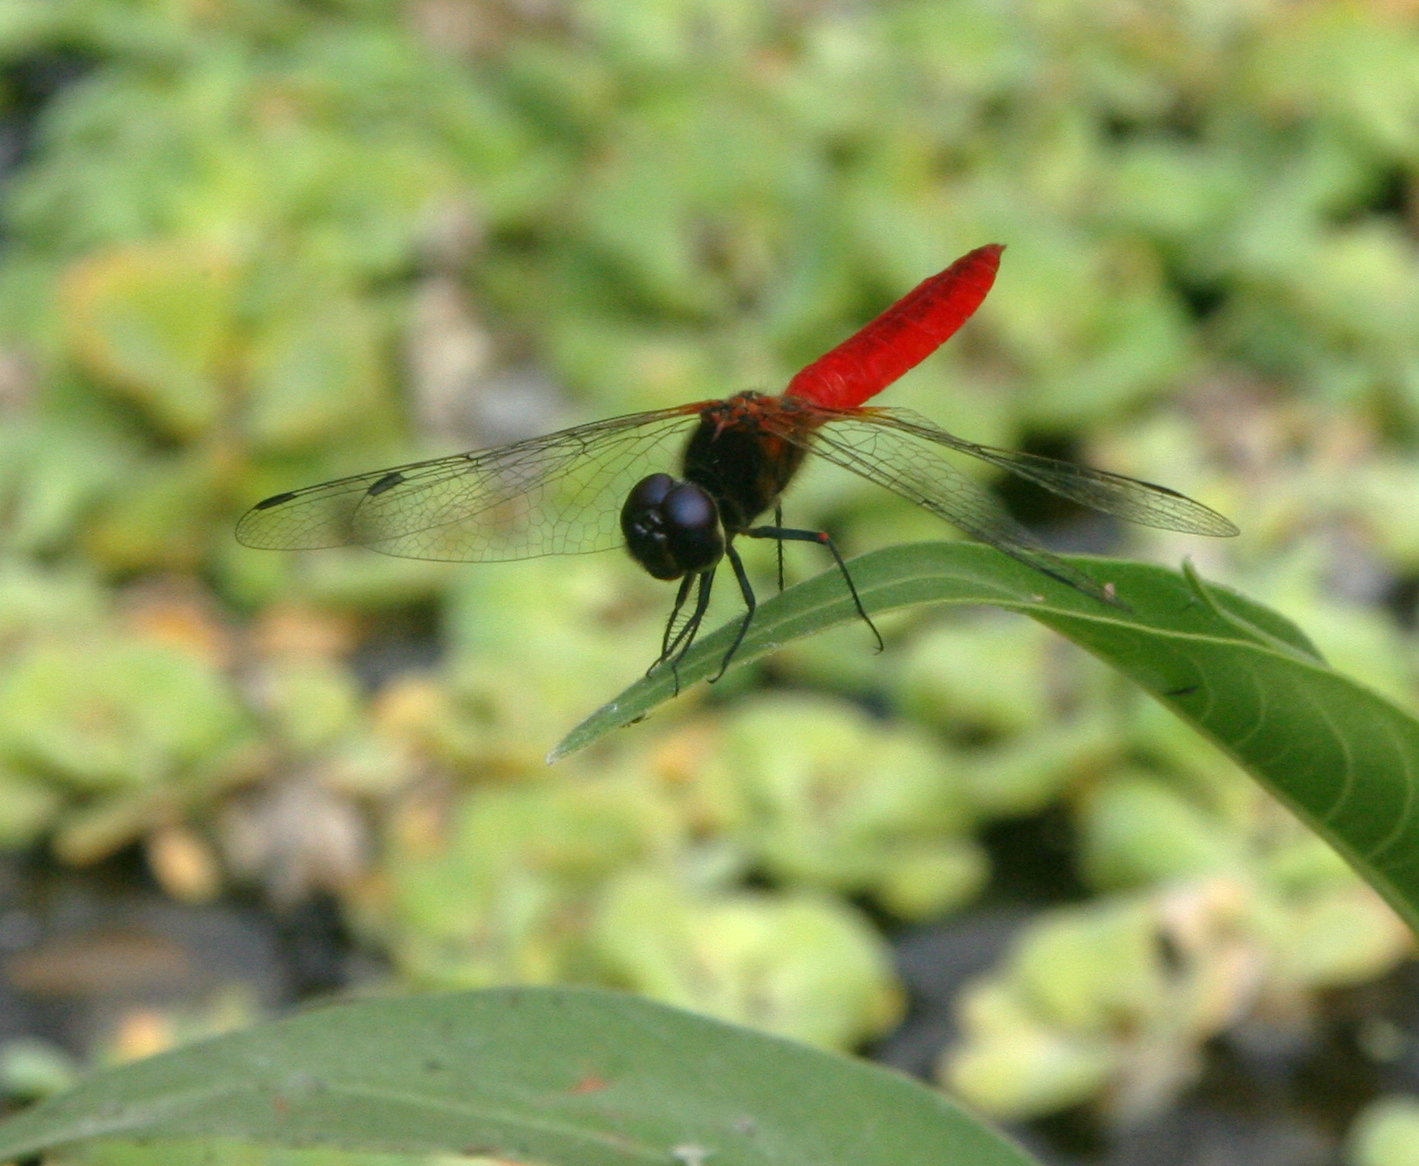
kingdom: Animalia
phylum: Arthropoda
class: Insecta
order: Odonata
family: Libellulidae
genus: Aethriamanta
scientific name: Aethriamanta brevipennis
